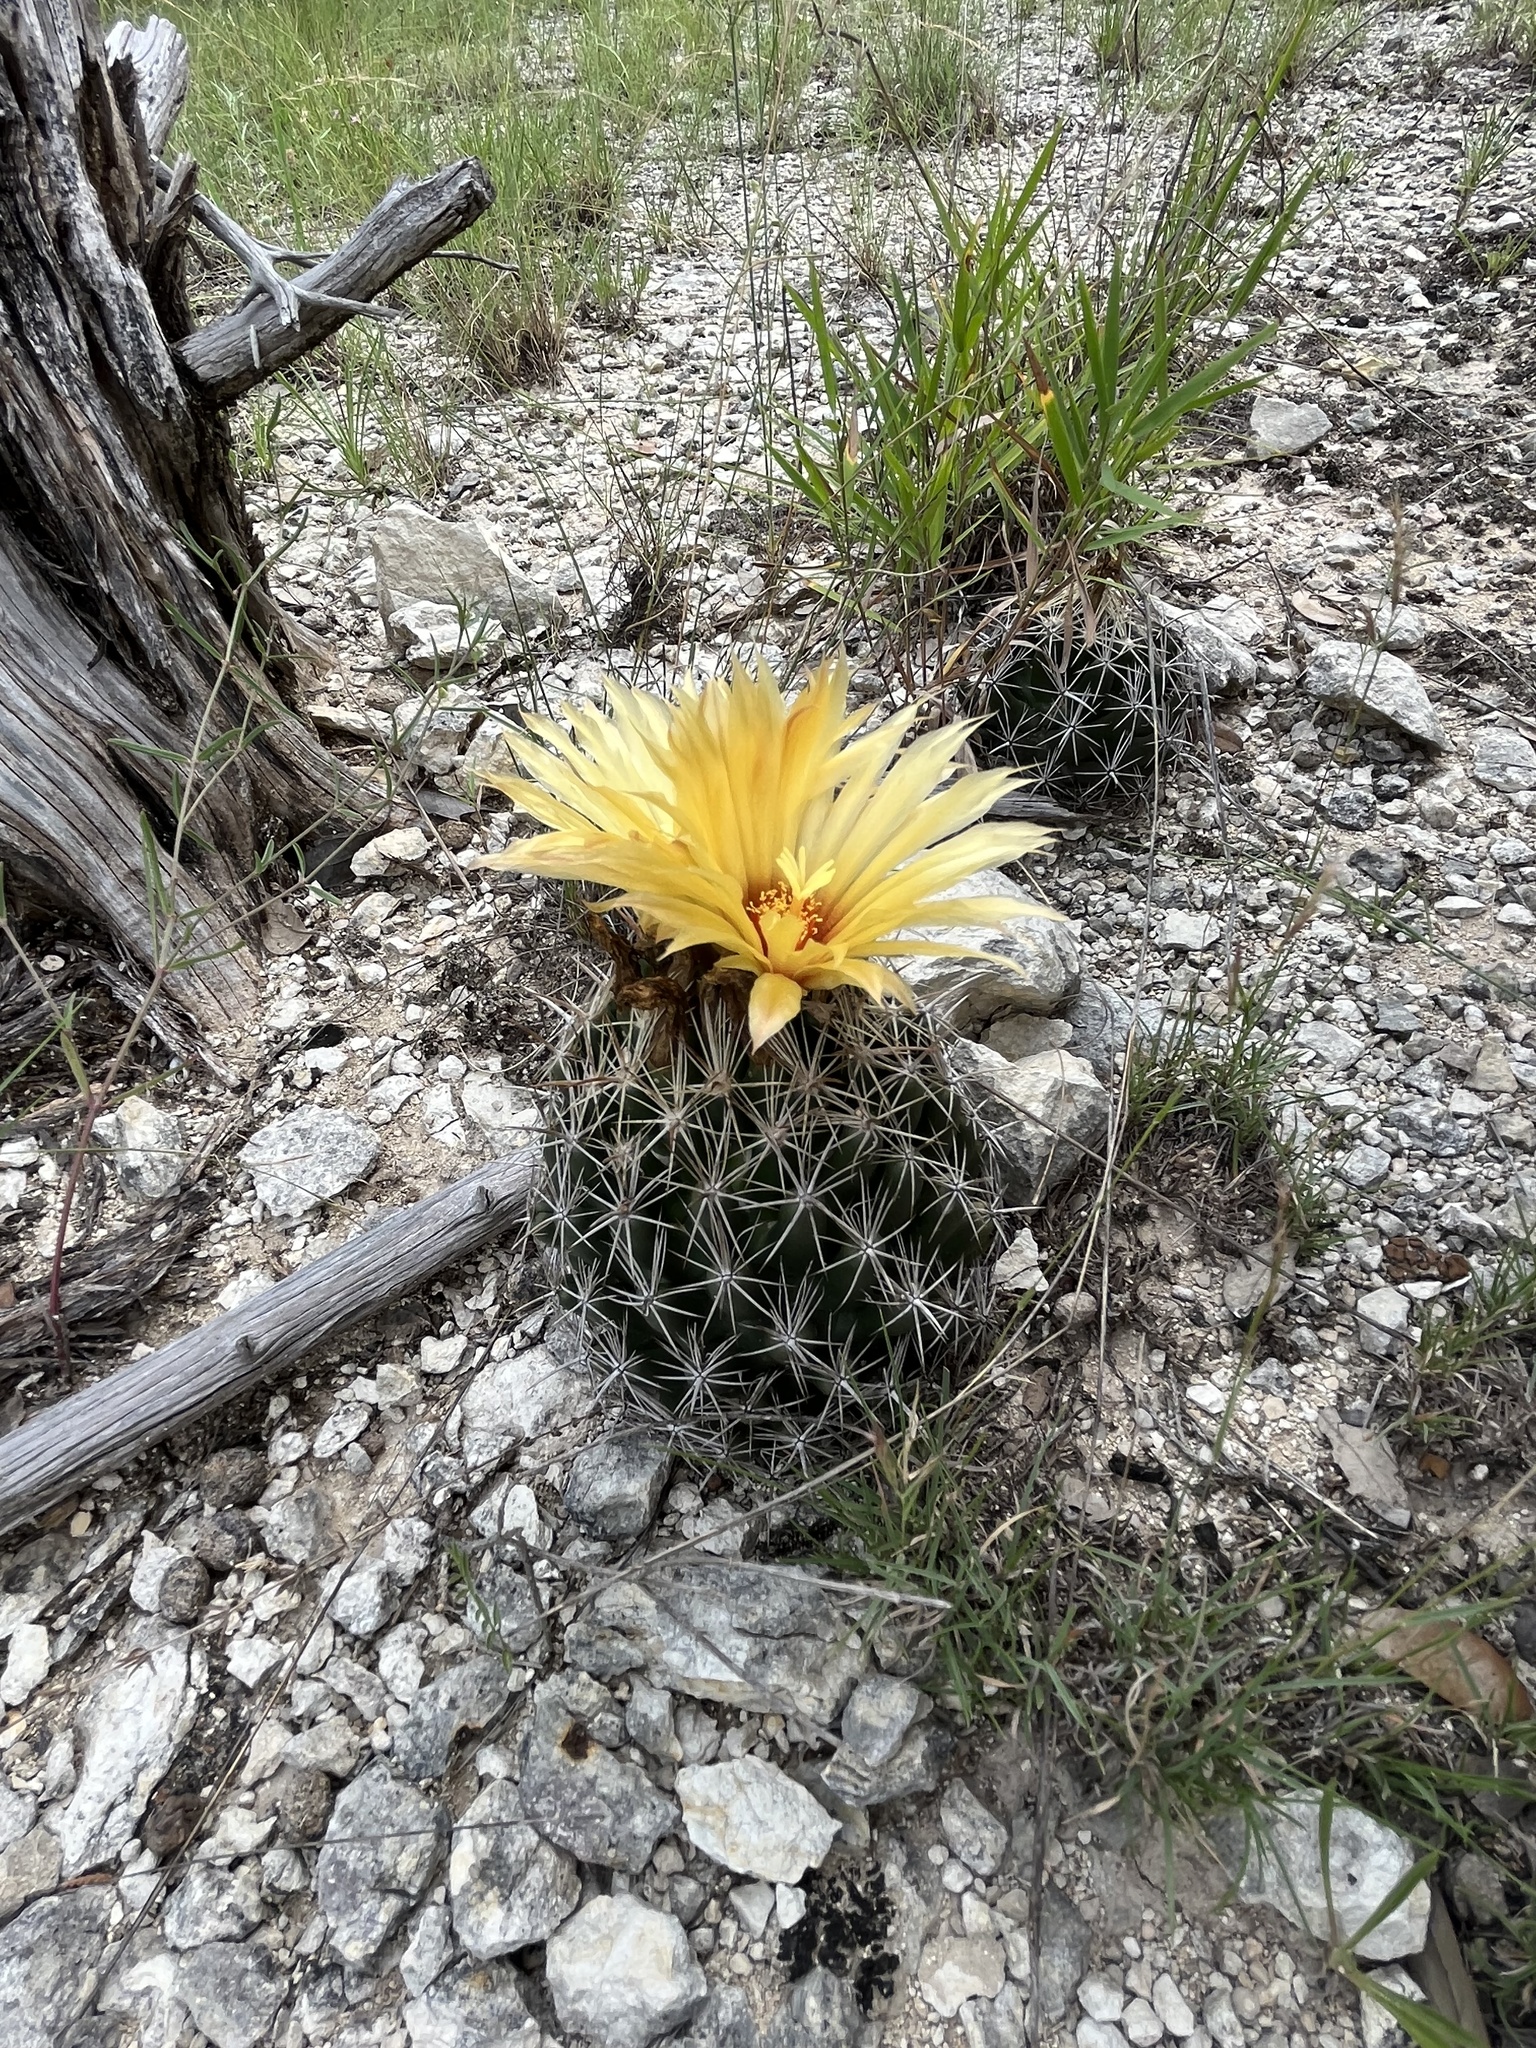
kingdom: Plantae
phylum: Tracheophyta
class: Magnoliopsida
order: Caryophyllales
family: Cactaceae
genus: Coryphantha
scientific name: Coryphantha sulcata
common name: Finger cactus
